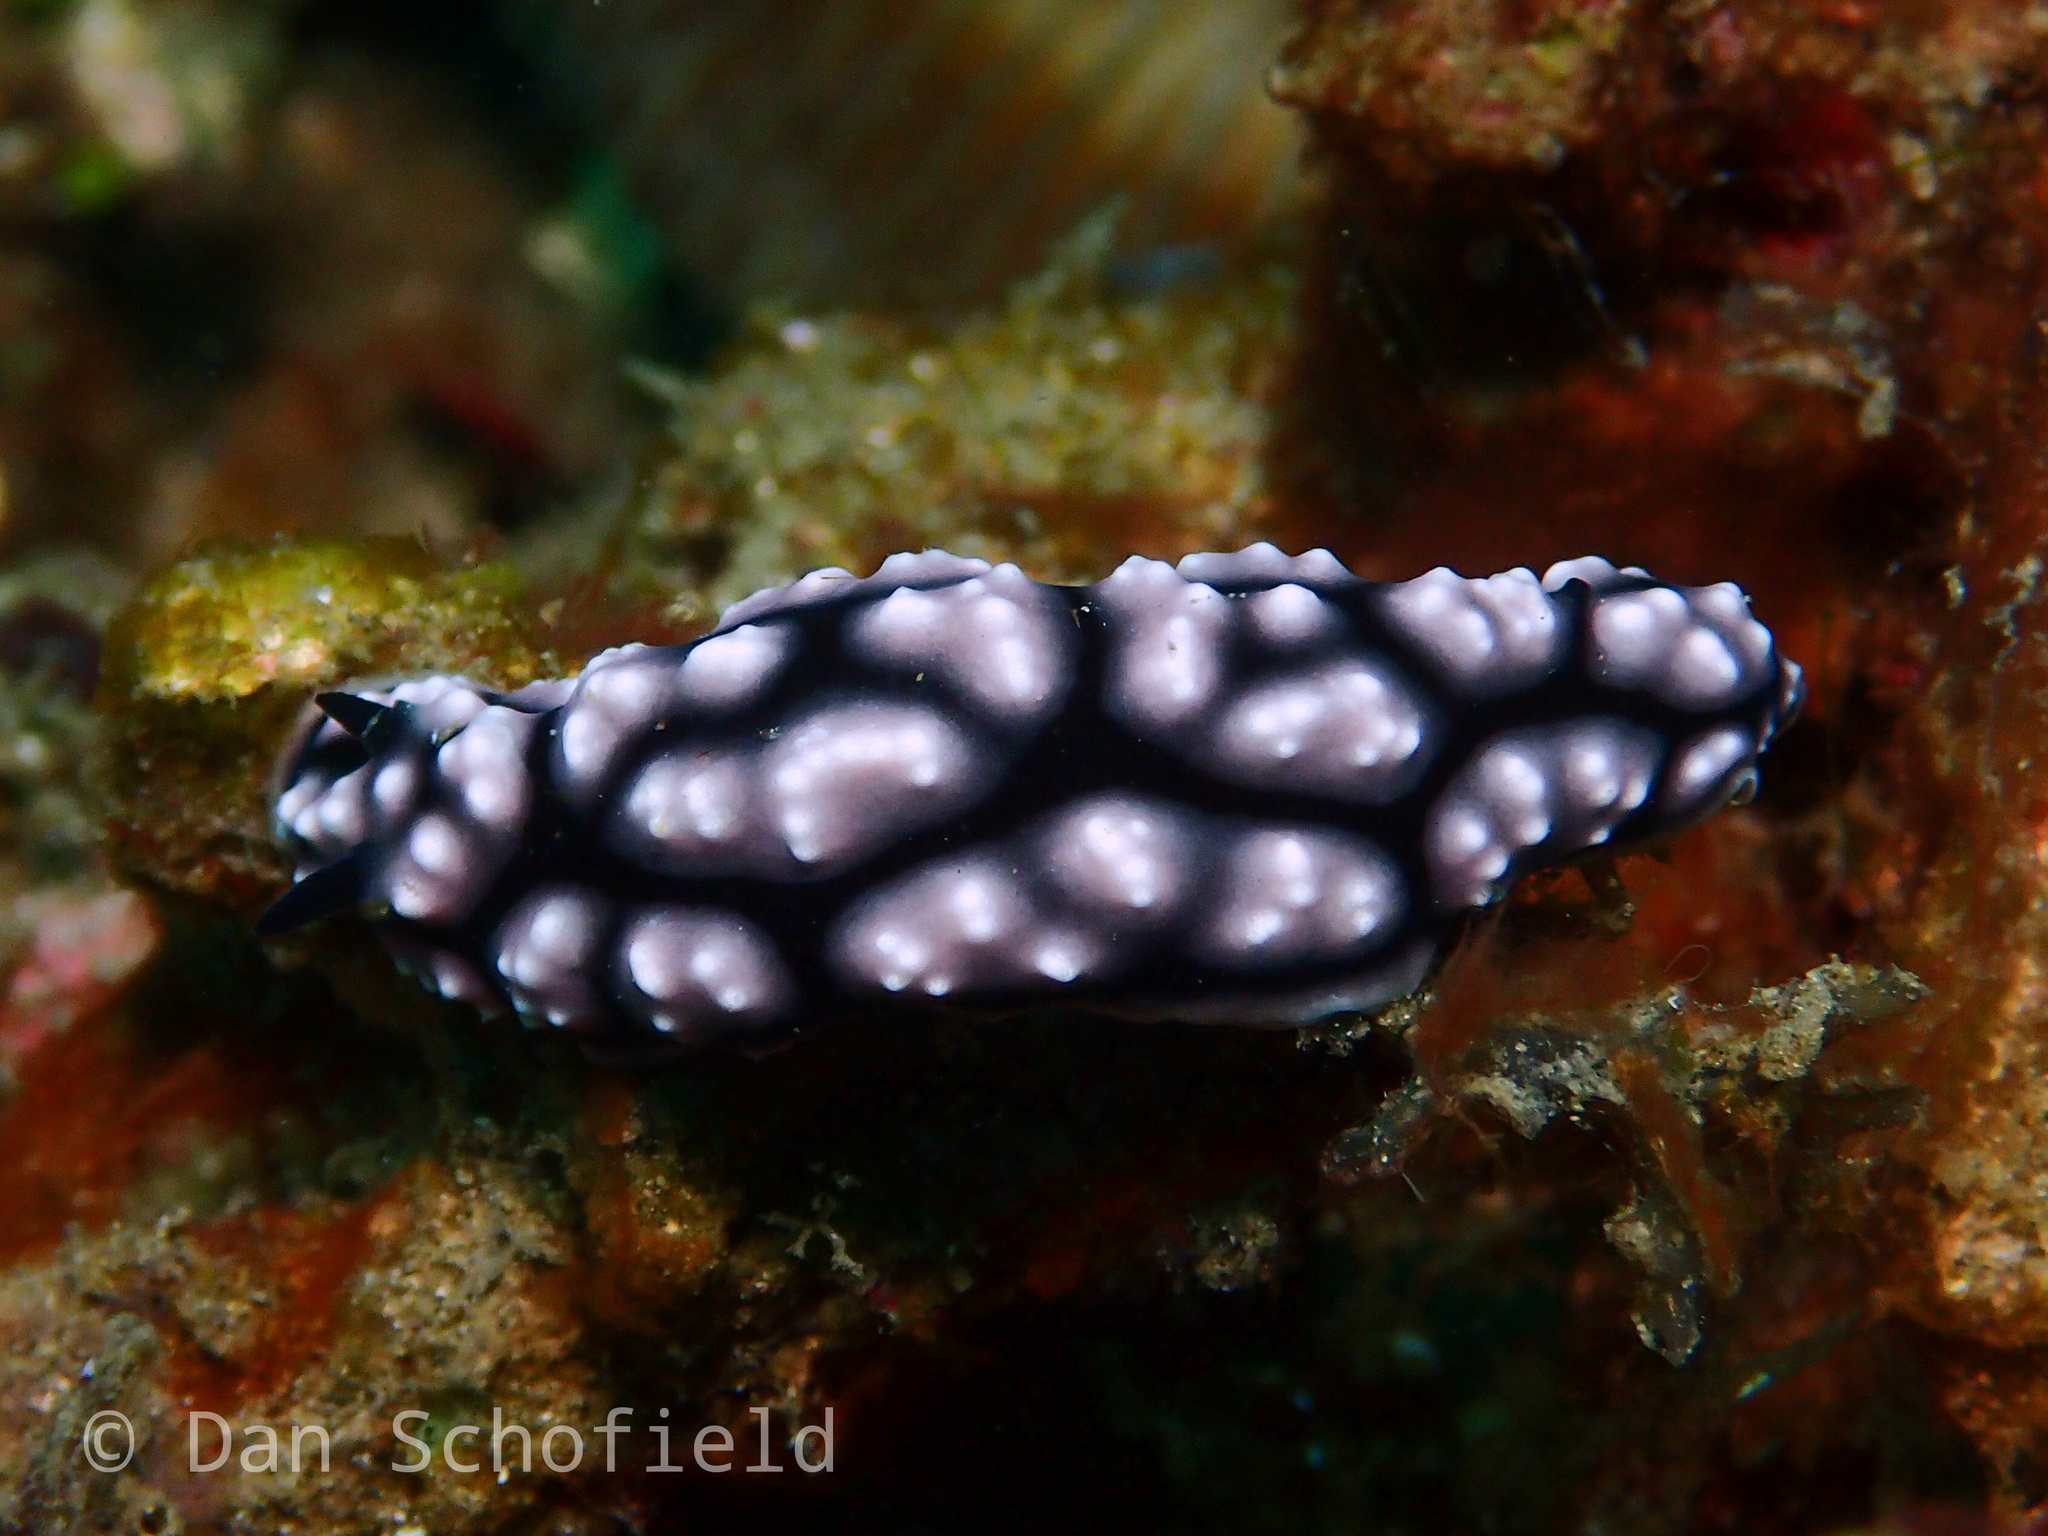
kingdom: Animalia
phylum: Mollusca
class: Gastropoda
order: Nudibranchia
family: Phyllidiidae
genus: Phyllidiella
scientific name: Phyllidiella pustulosa
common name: Pustular phyllidia
